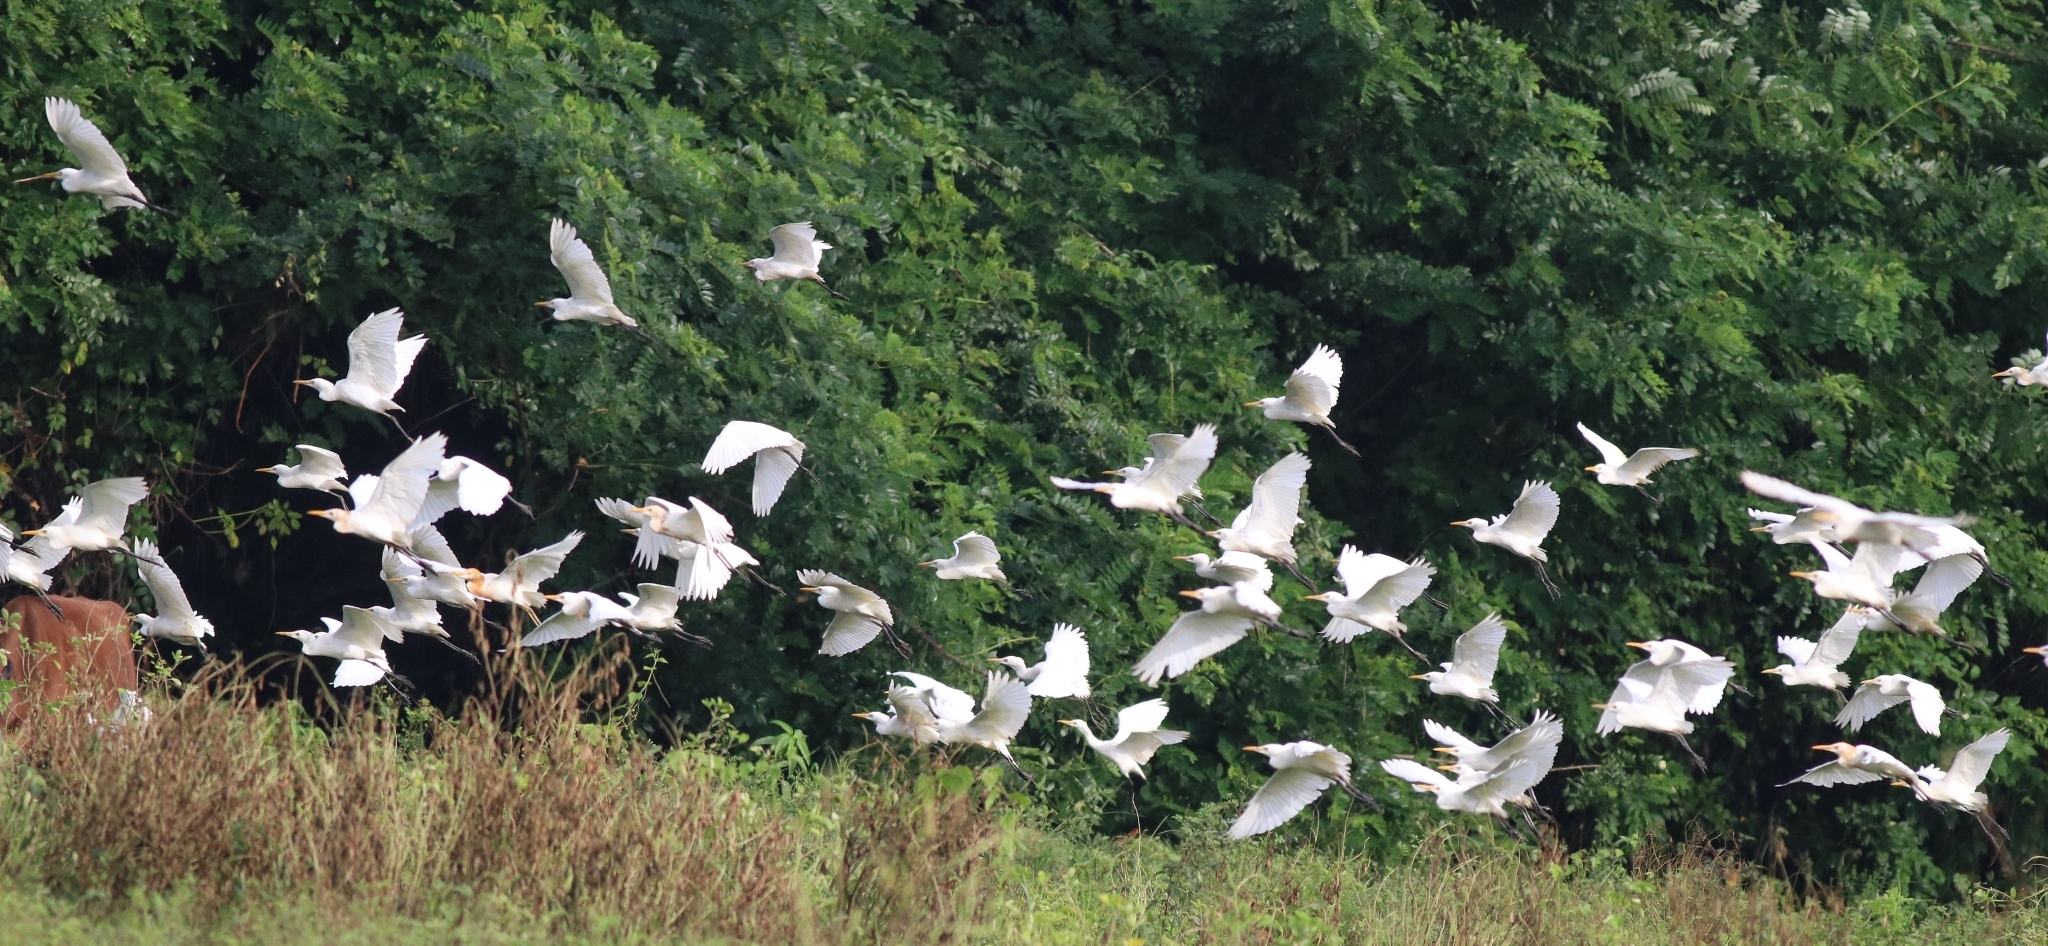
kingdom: Animalia
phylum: Chordata
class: Aves
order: Pelecaniformes
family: Ardeidae
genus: Bubulcus
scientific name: Bubulcus coromandus
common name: Eastern cattle egret
